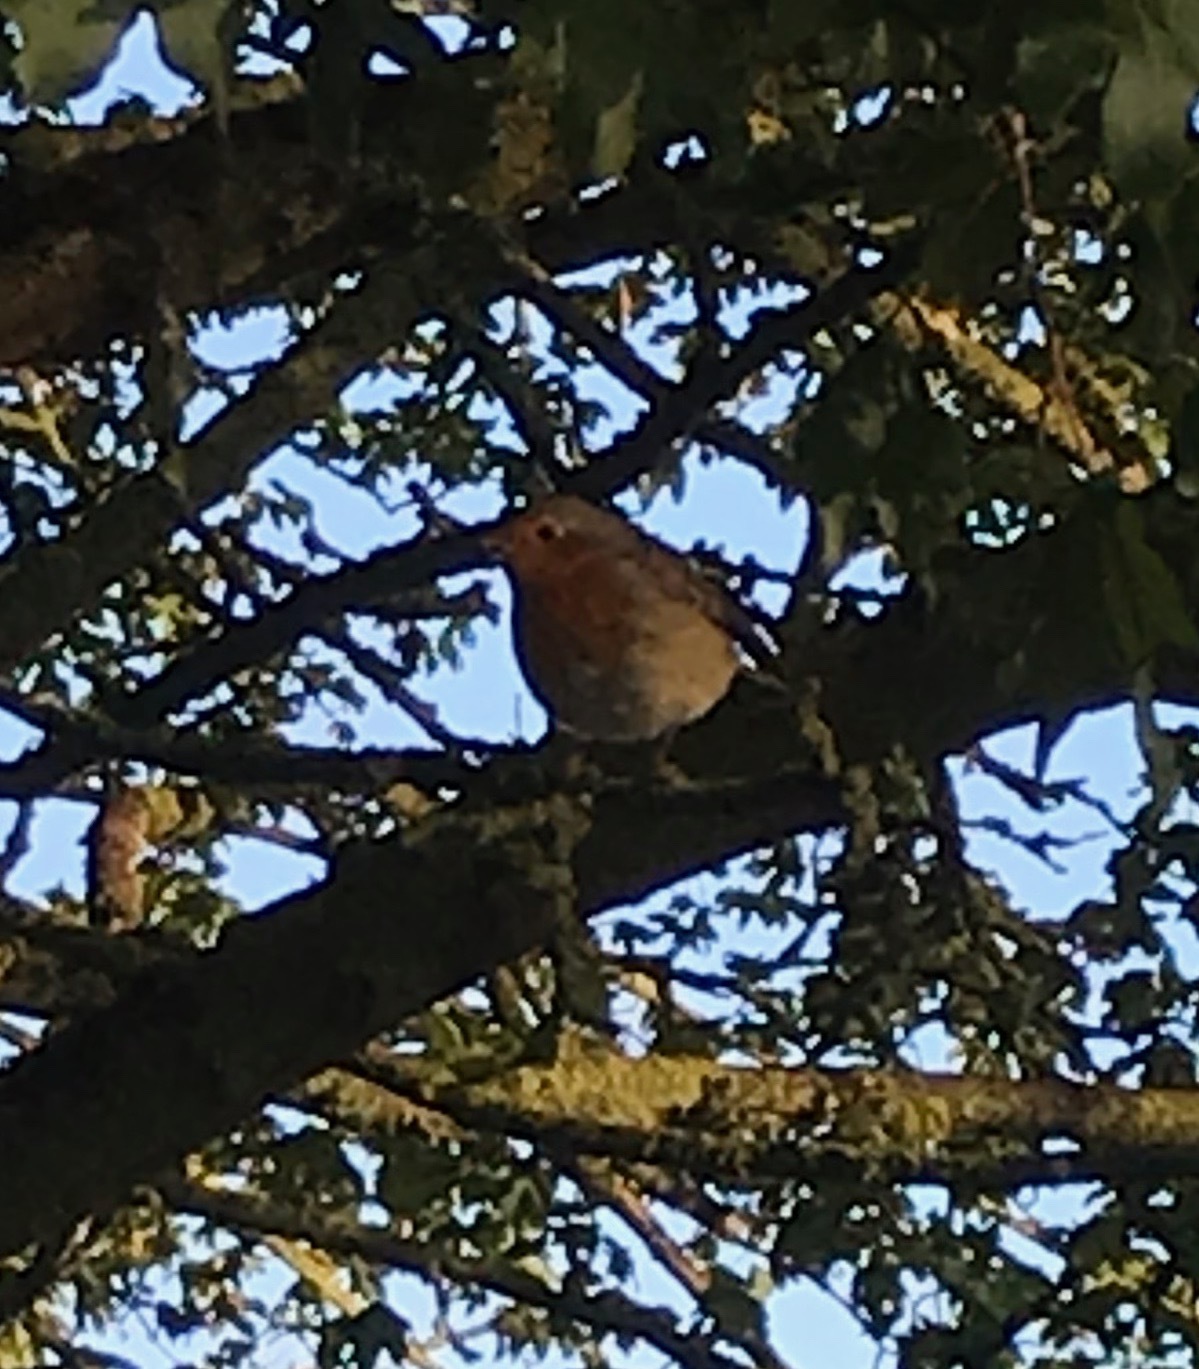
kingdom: Animalia
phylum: Chordata
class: Aves
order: Passeriformes
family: Muscicapidae
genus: Erithacus
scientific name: Erithacus rubecula
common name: European robin
